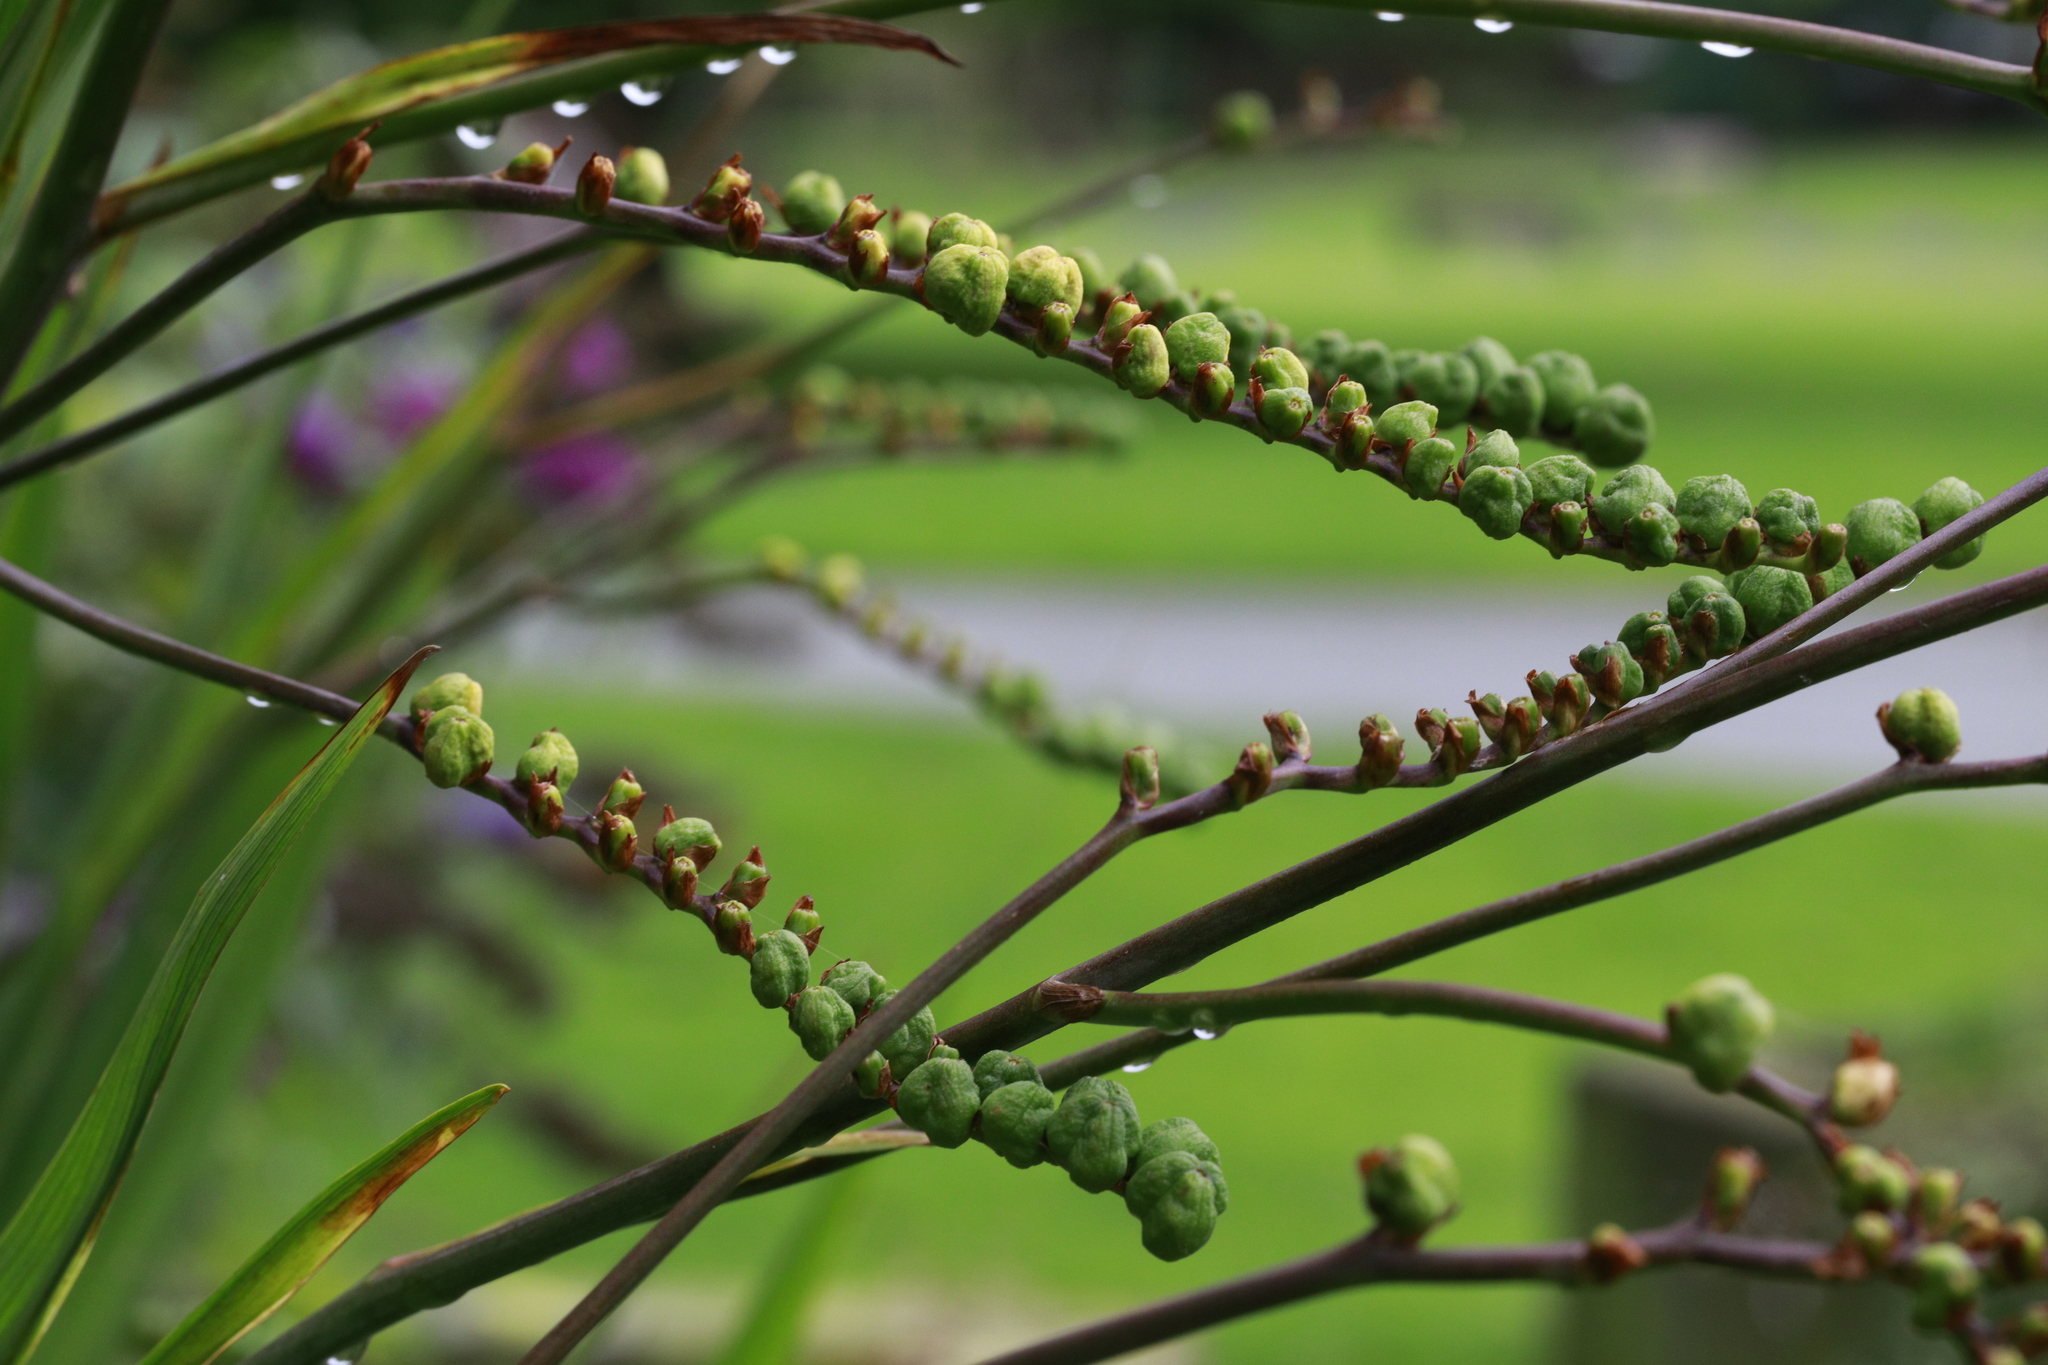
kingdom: Plantae
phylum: Tracheophyta
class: Liliopsida
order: Asparagales
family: Iridaceae
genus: Crocosmia
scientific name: Crocosmia crocosmiiflora
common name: Montbretia
